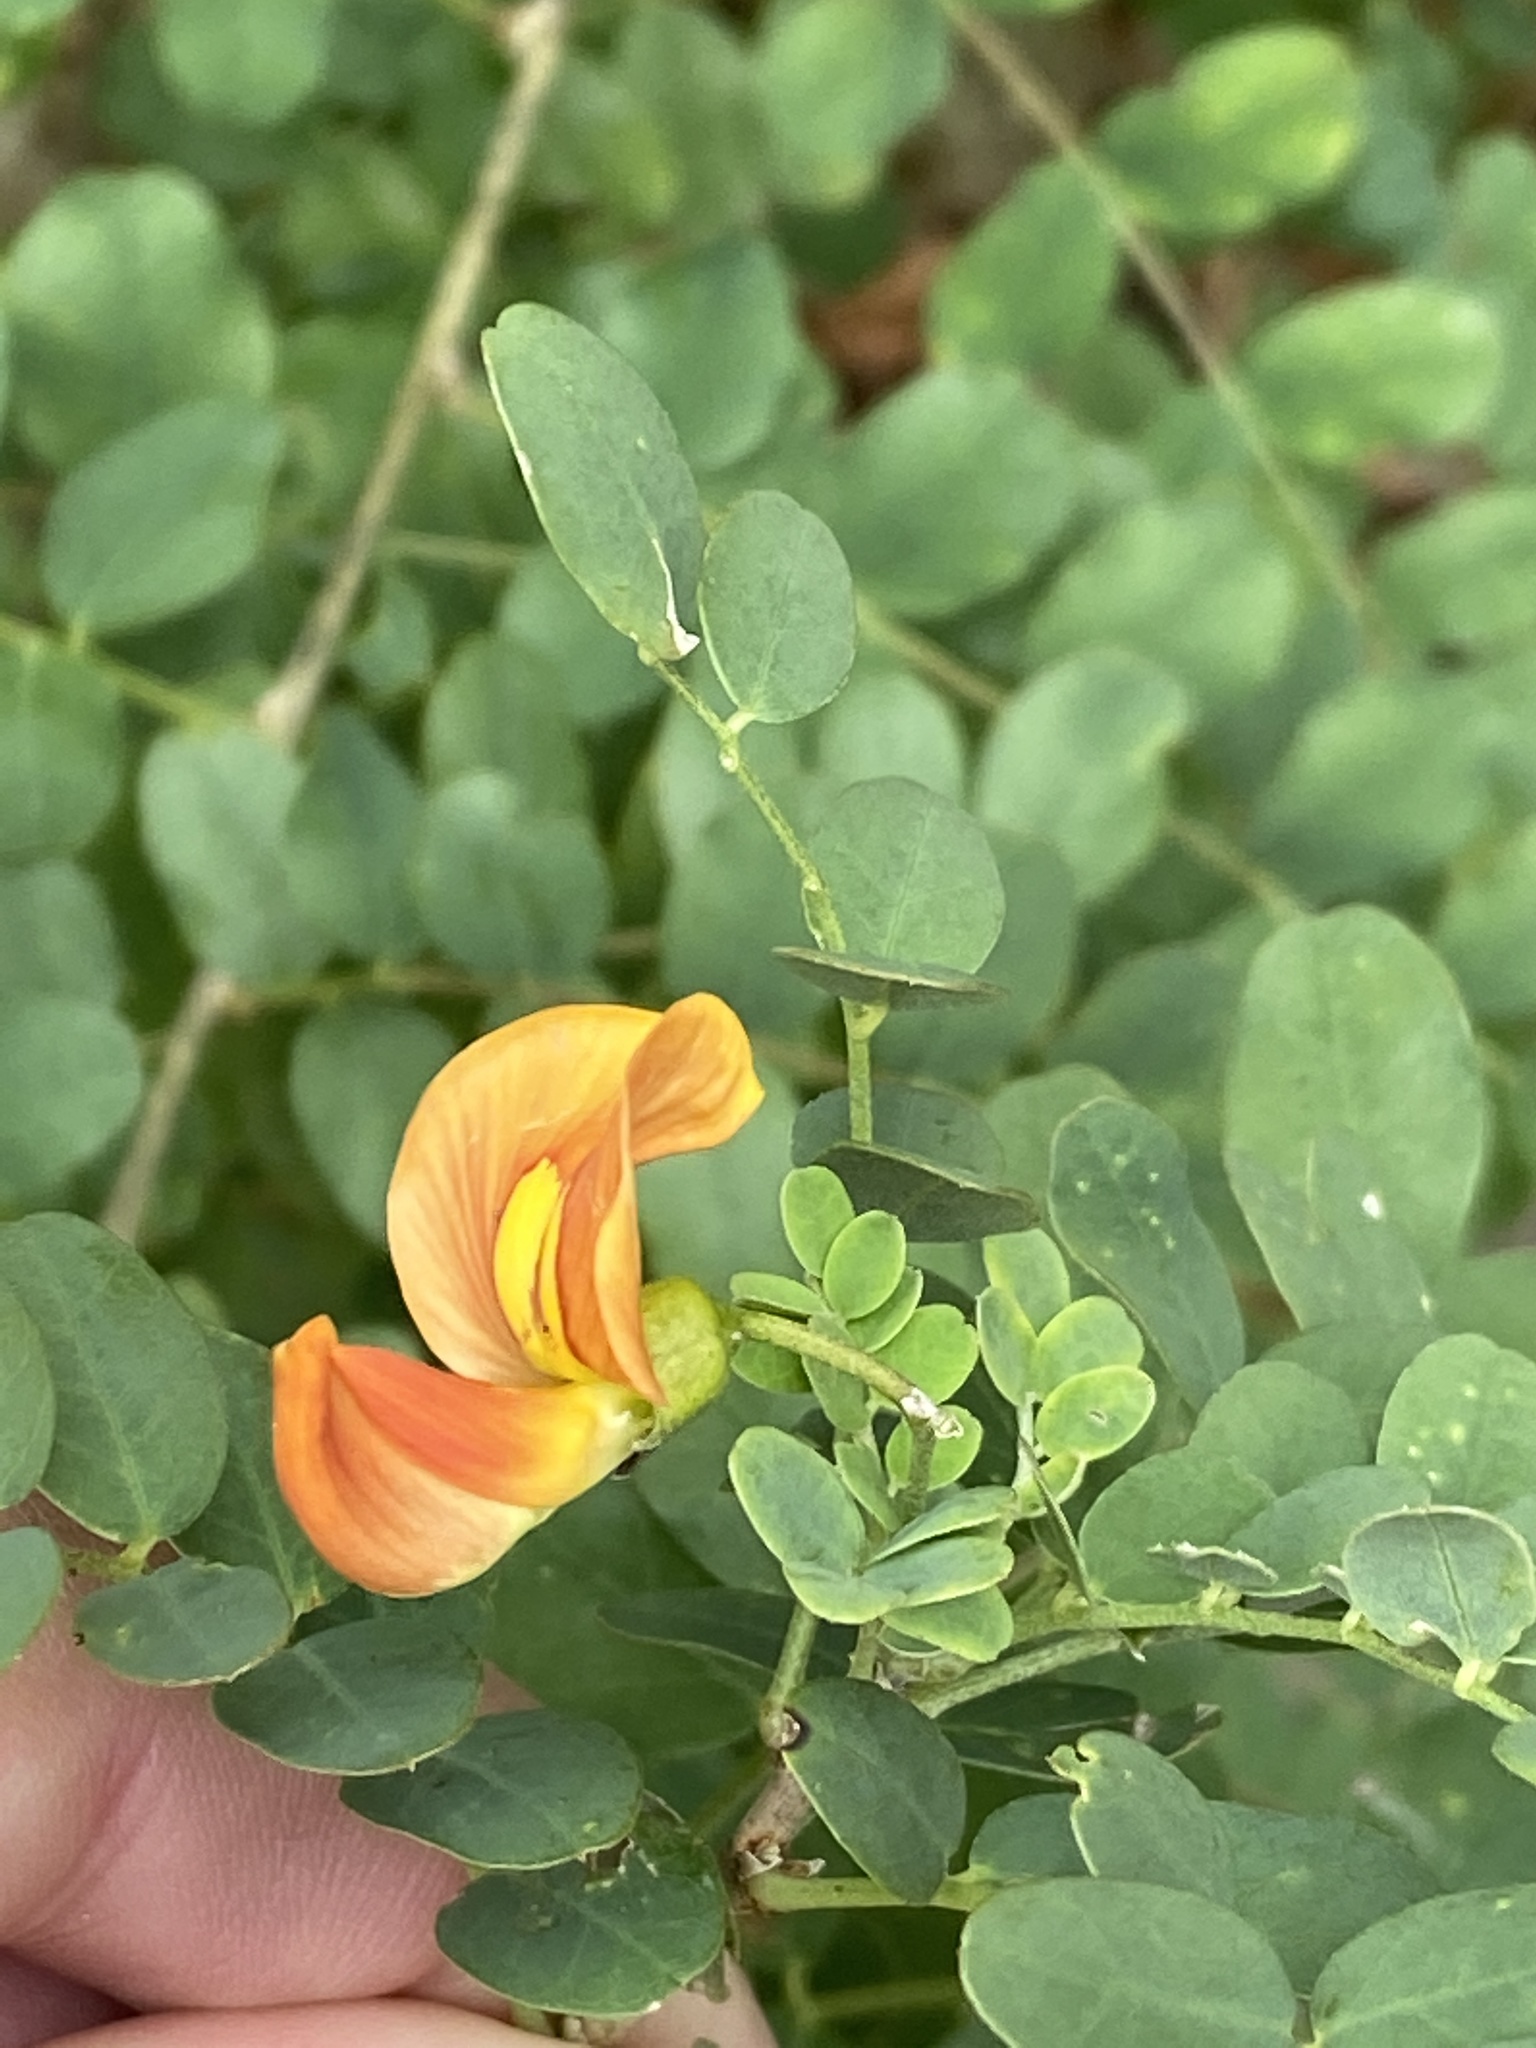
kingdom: Plantae
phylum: Tracheophyta
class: Magnoliopsida
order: Fabales
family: Fabaceae
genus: Colutea
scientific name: Colutea media
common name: Orange bladder-senna
